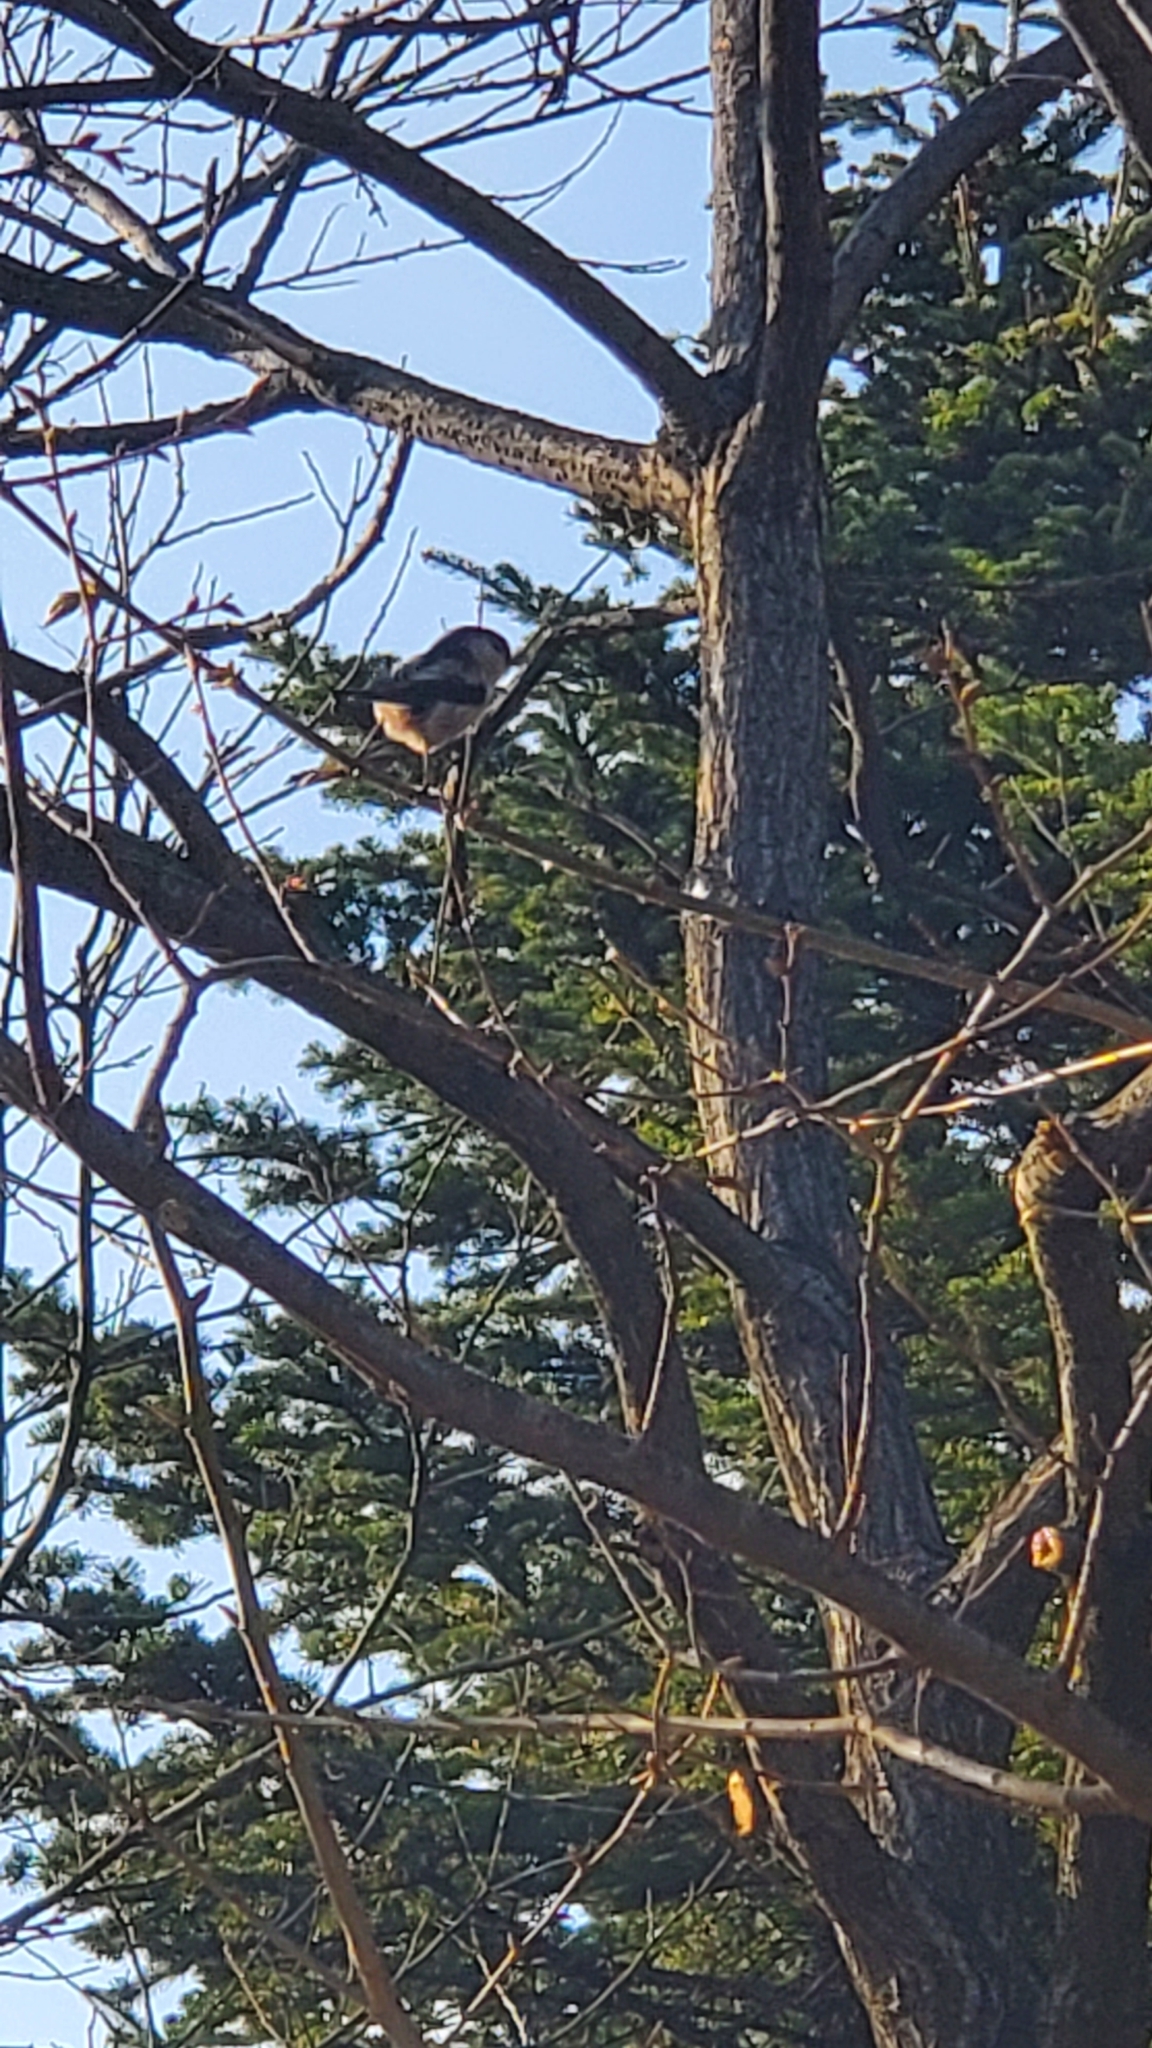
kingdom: Animalia
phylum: Chordata
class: Aves
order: Passeriformes
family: Aegithalidae
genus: Aegithalos
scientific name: Aegithalos caudatus
